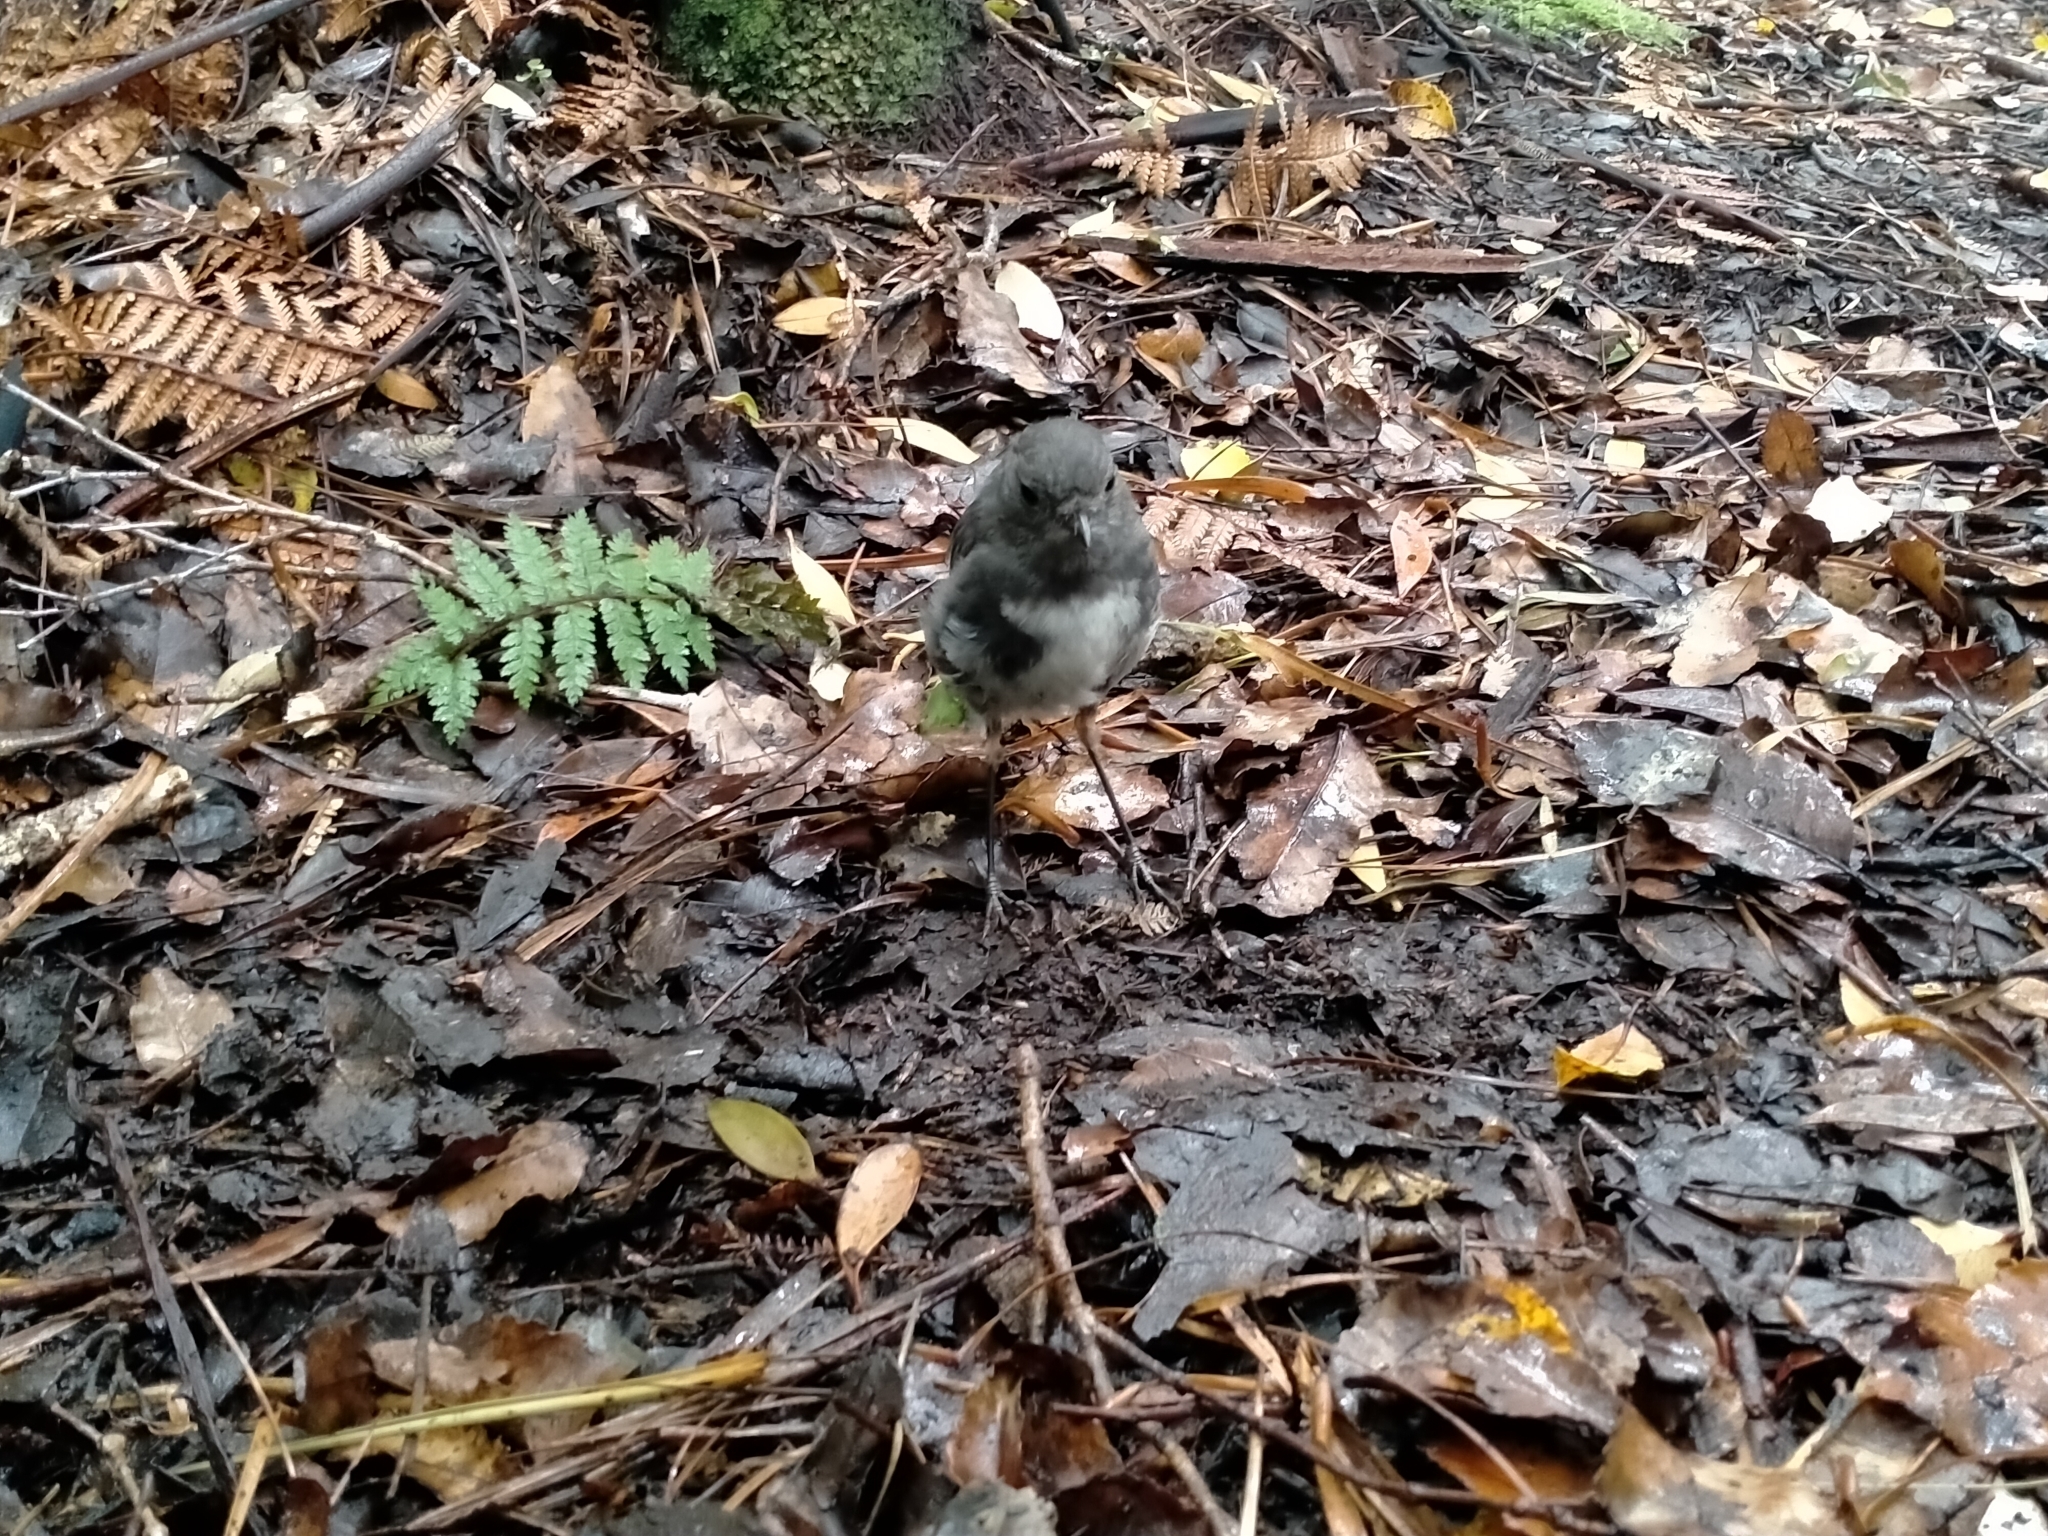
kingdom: Animalia
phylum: Chordata
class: Aves
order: Passeriformes
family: Petroicidae
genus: Petroica
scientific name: Petroica australis
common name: New zealand robin
